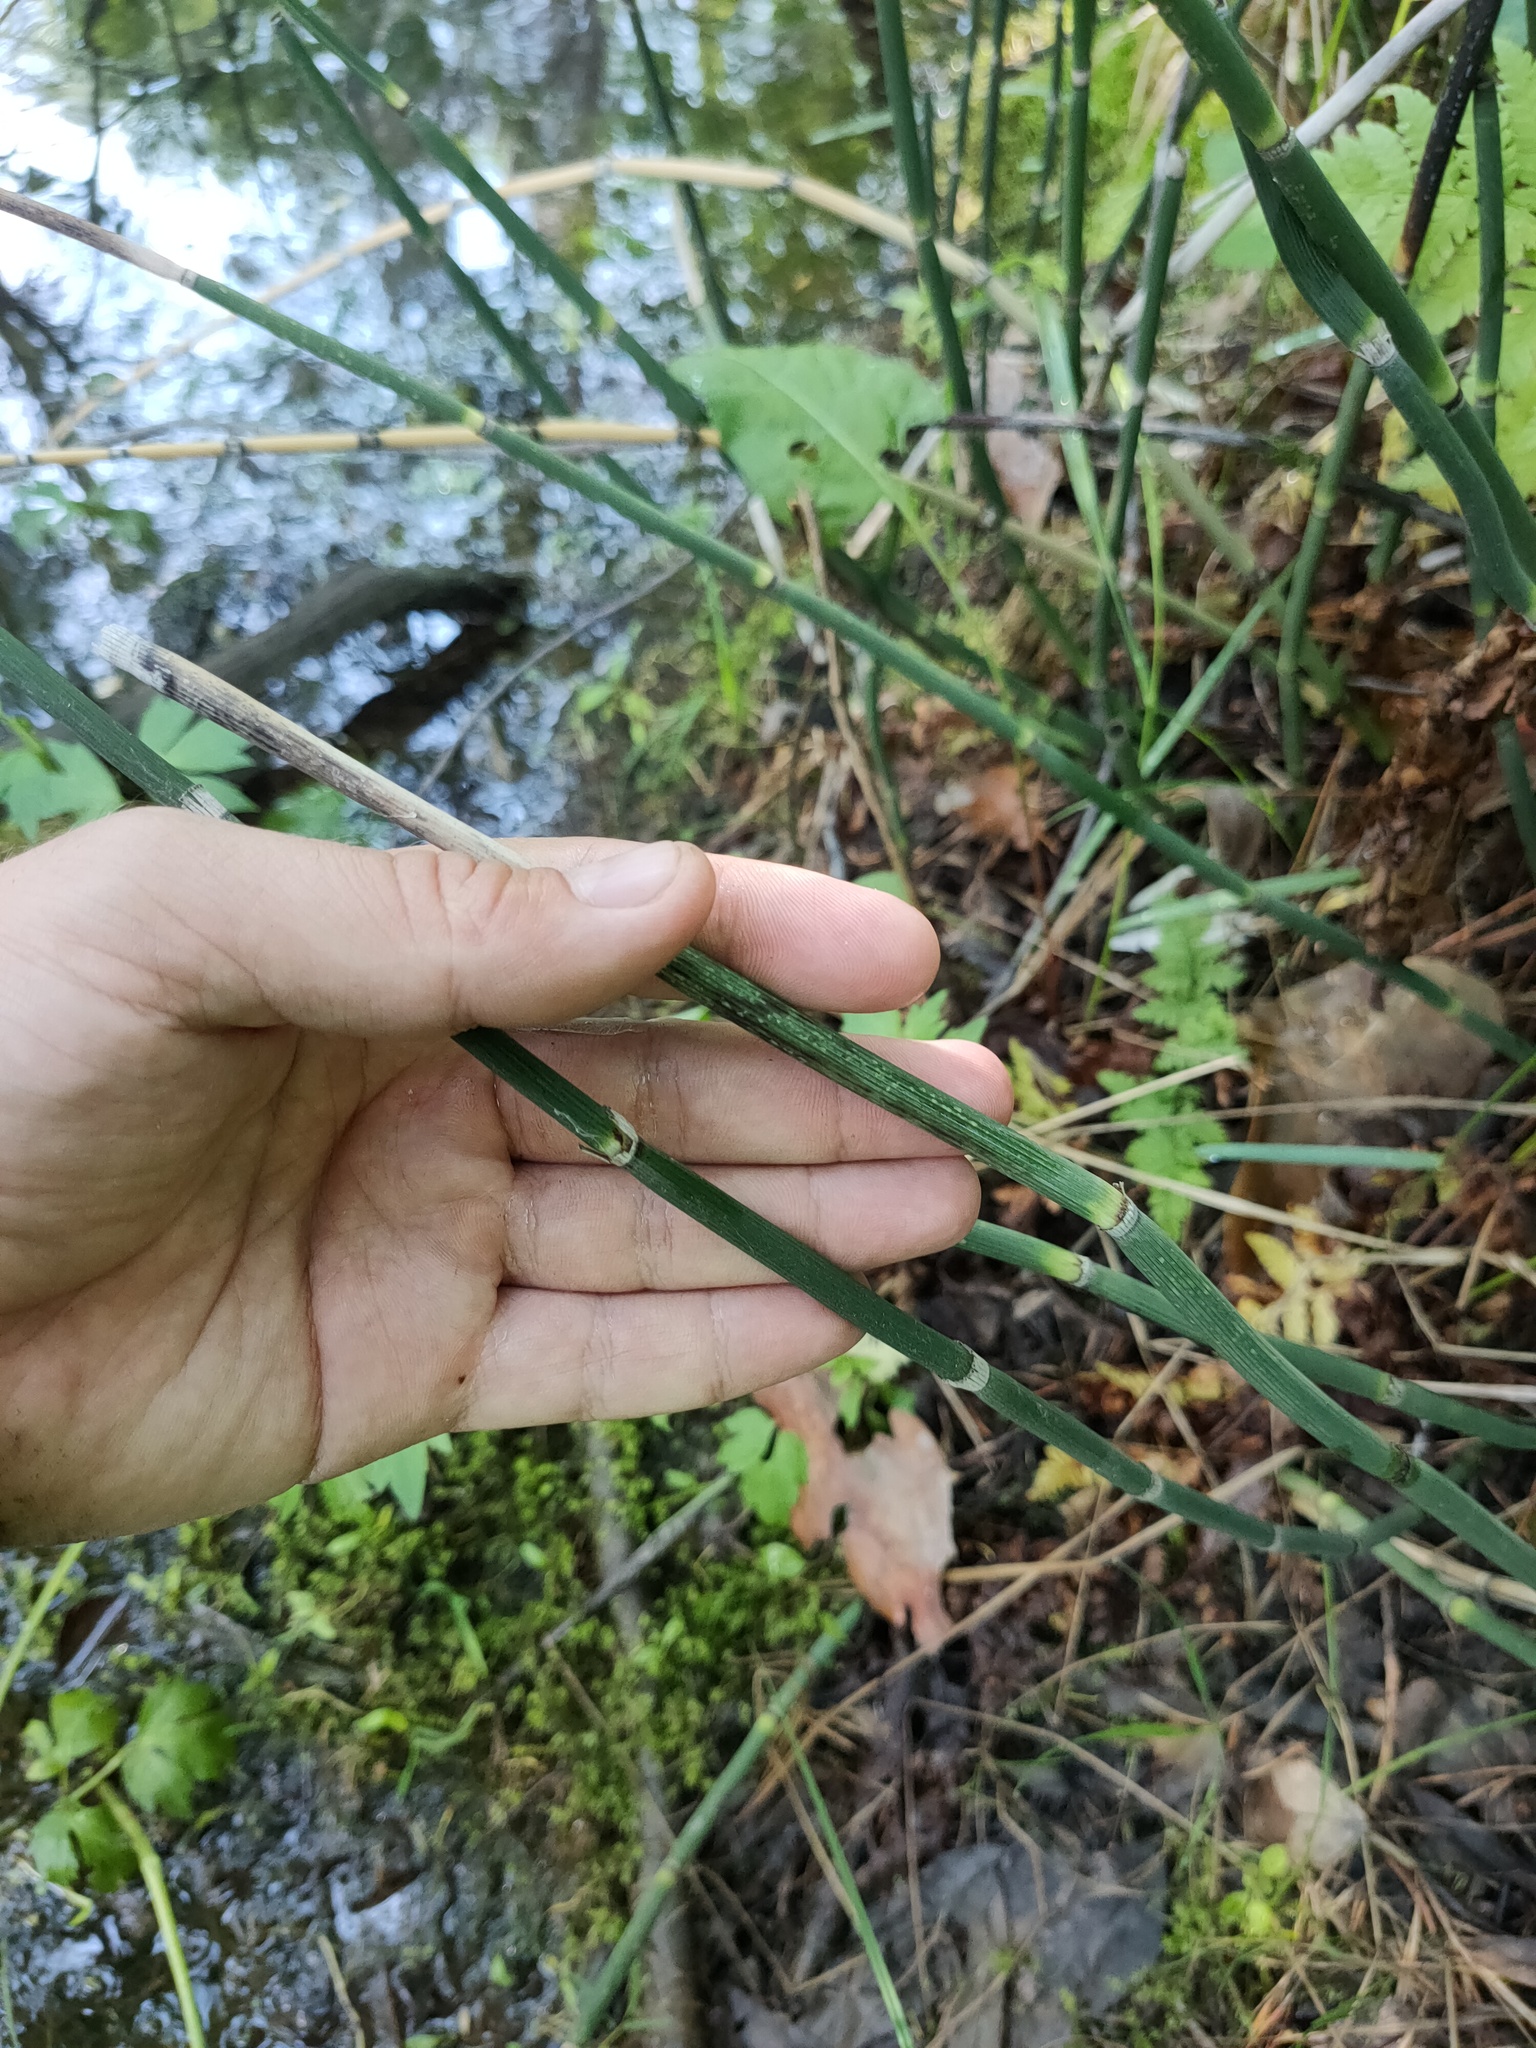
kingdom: Plantae
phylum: Tracheophyta
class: Polypodiopsida
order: Equisetales
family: Equisetaceae
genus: Equisetum
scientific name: Equisetum hyemale
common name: Rough horsetail
